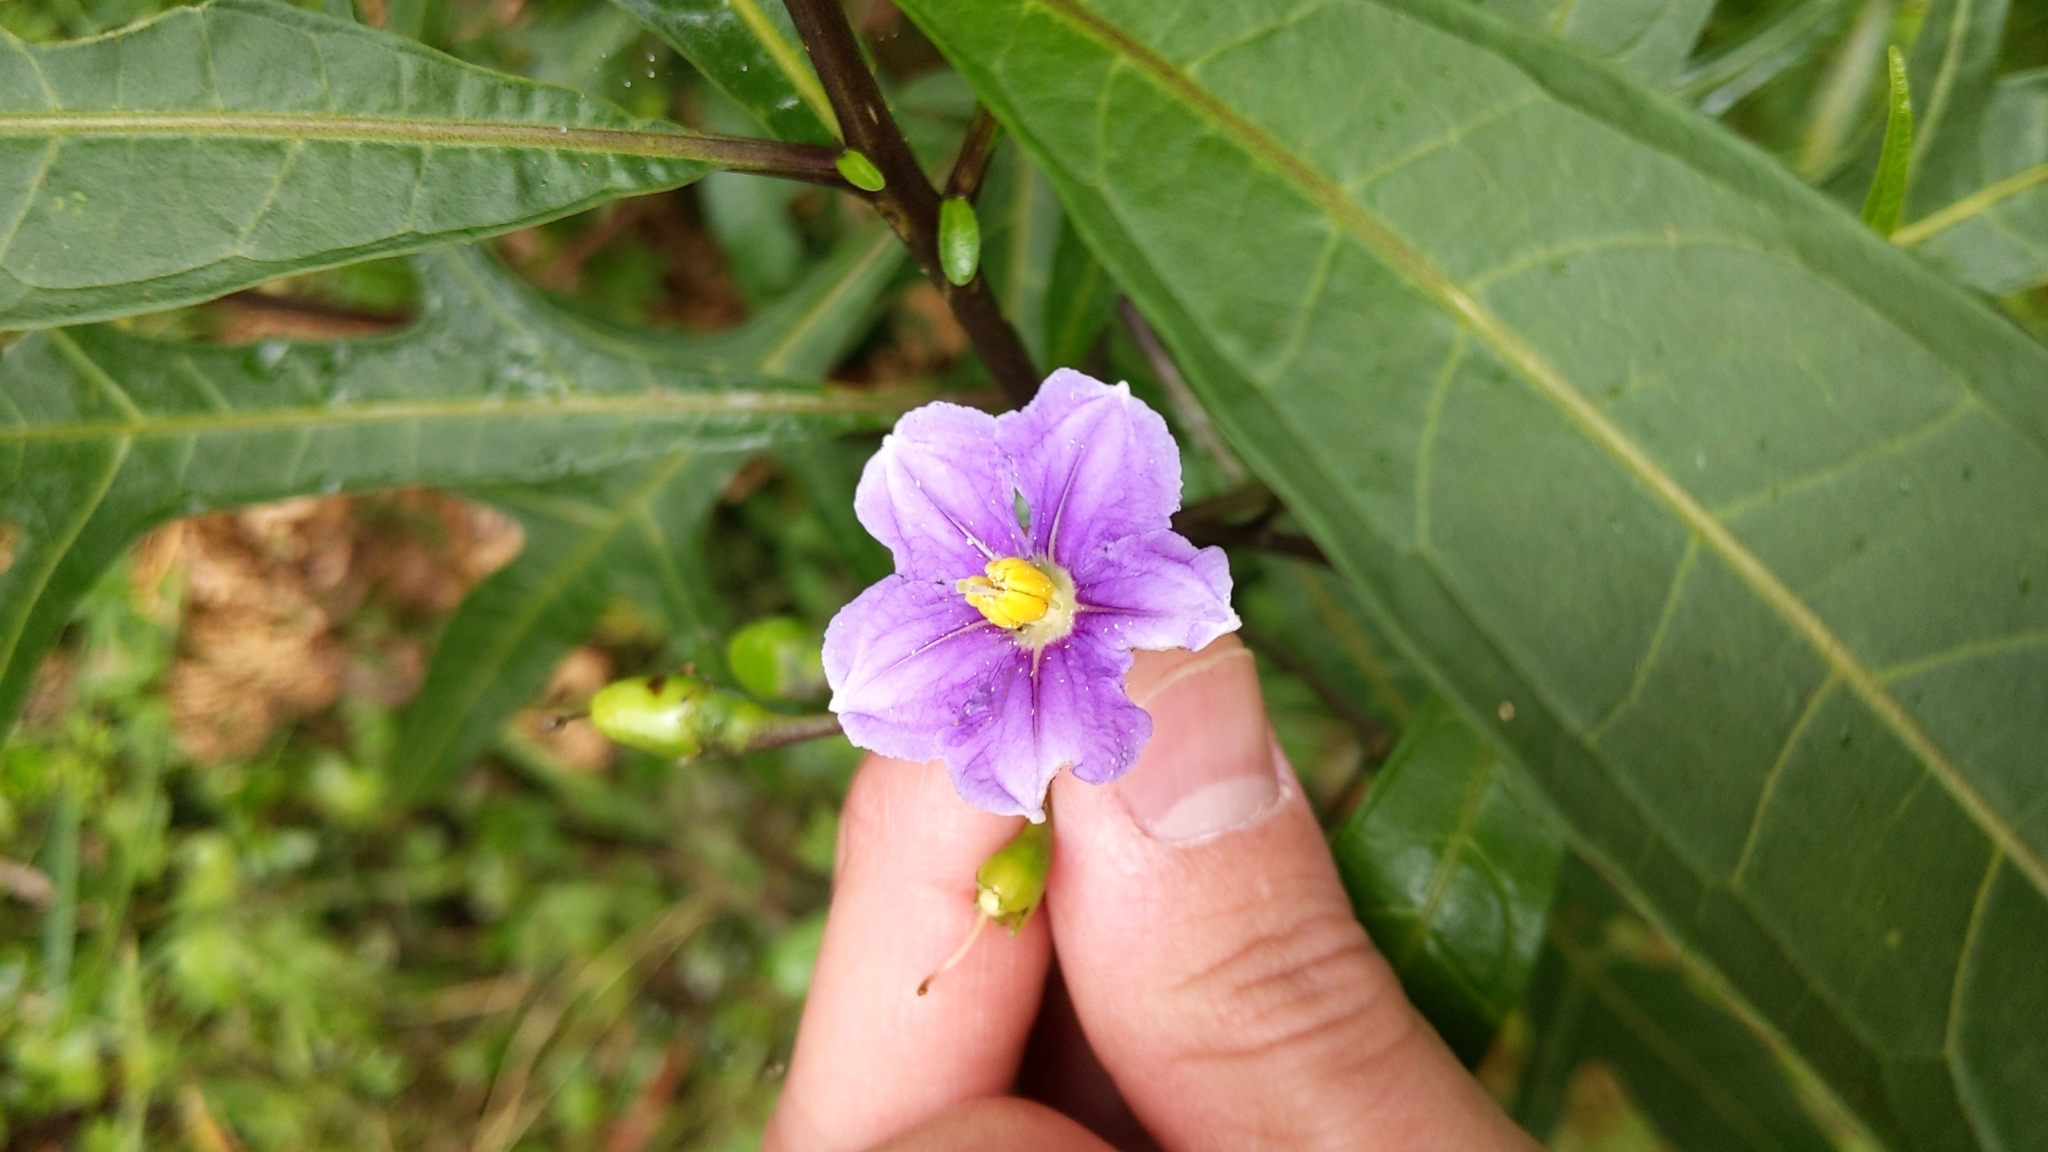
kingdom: Plantae
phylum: Tracheophyta
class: Magnoliopsida
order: Solanales
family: Solanaceae
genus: Solanum
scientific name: Solanum aviculare
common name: New zealand nightshade
